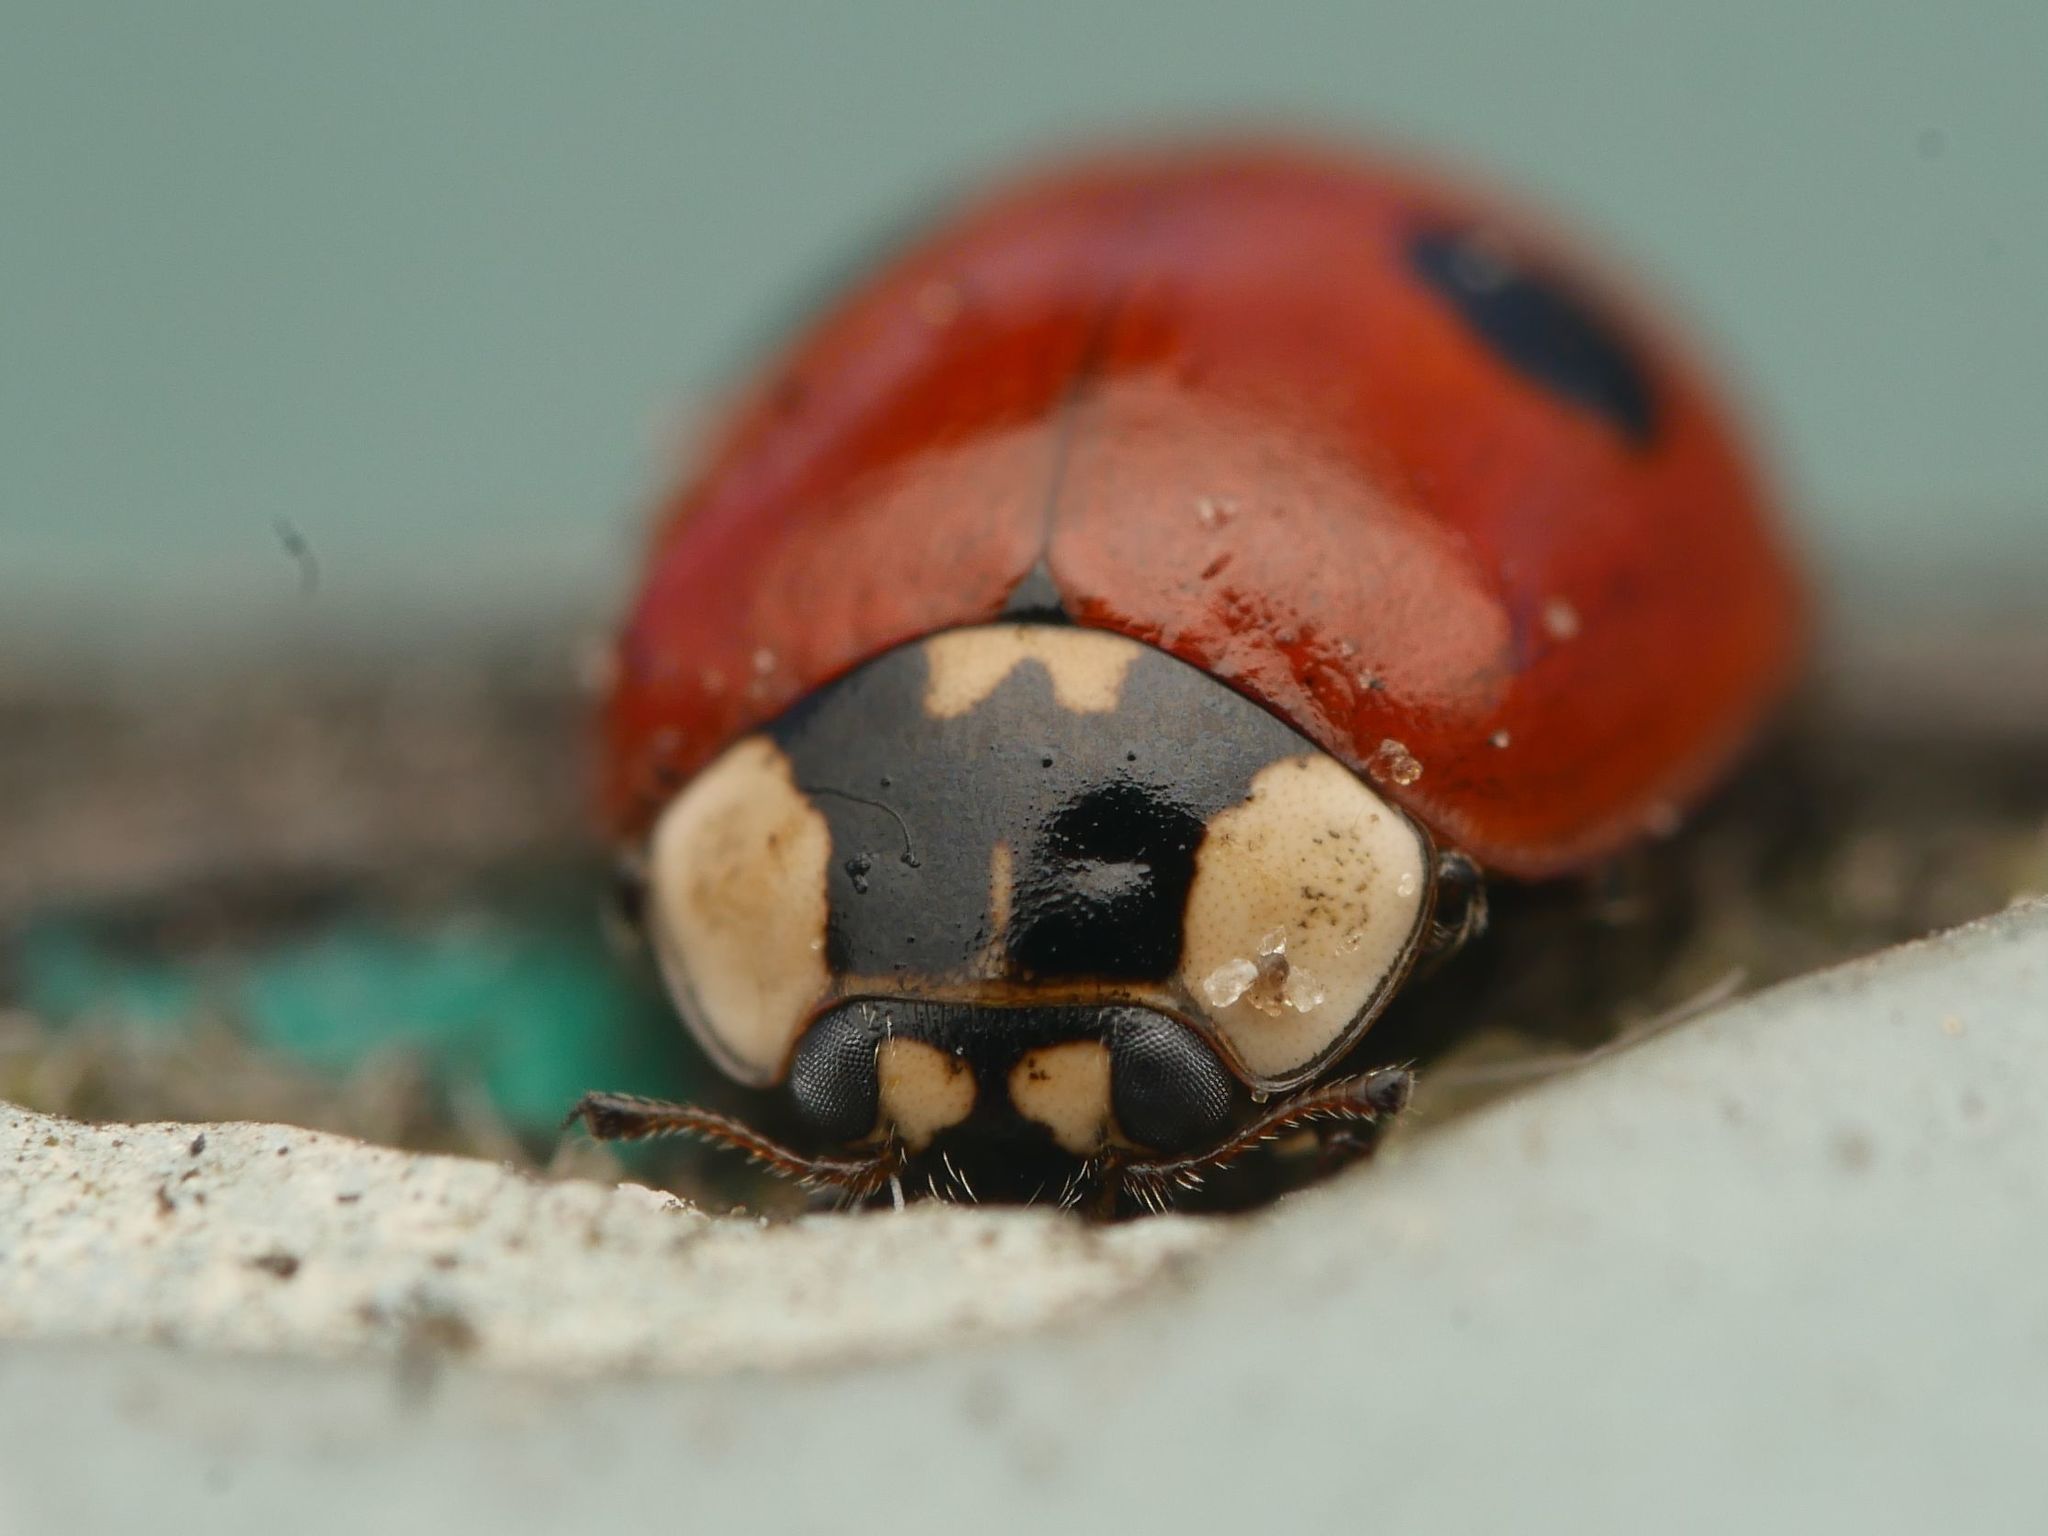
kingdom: Animalia
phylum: Arthropoda
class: Insecta
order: Coleoptera
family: Coccinellidae
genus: Adalia
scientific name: Adalia bipunctata
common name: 2-spot ladybird
